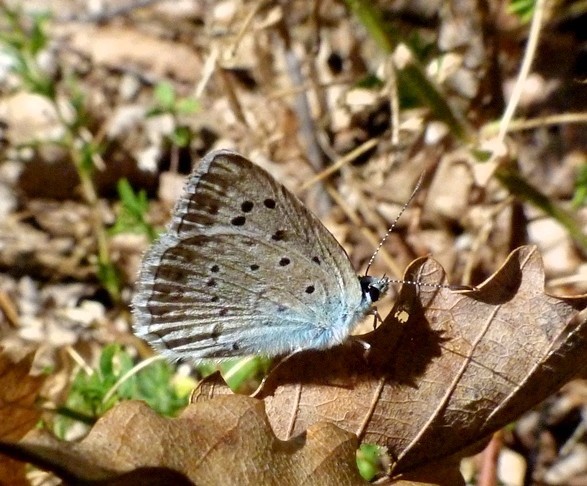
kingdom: Animalia
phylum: Arthropoda
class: Insecta
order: Lepidoptera
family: Lycaenidae
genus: Polyommatus
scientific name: Polyommatus daphnis
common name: Meleager's blue
